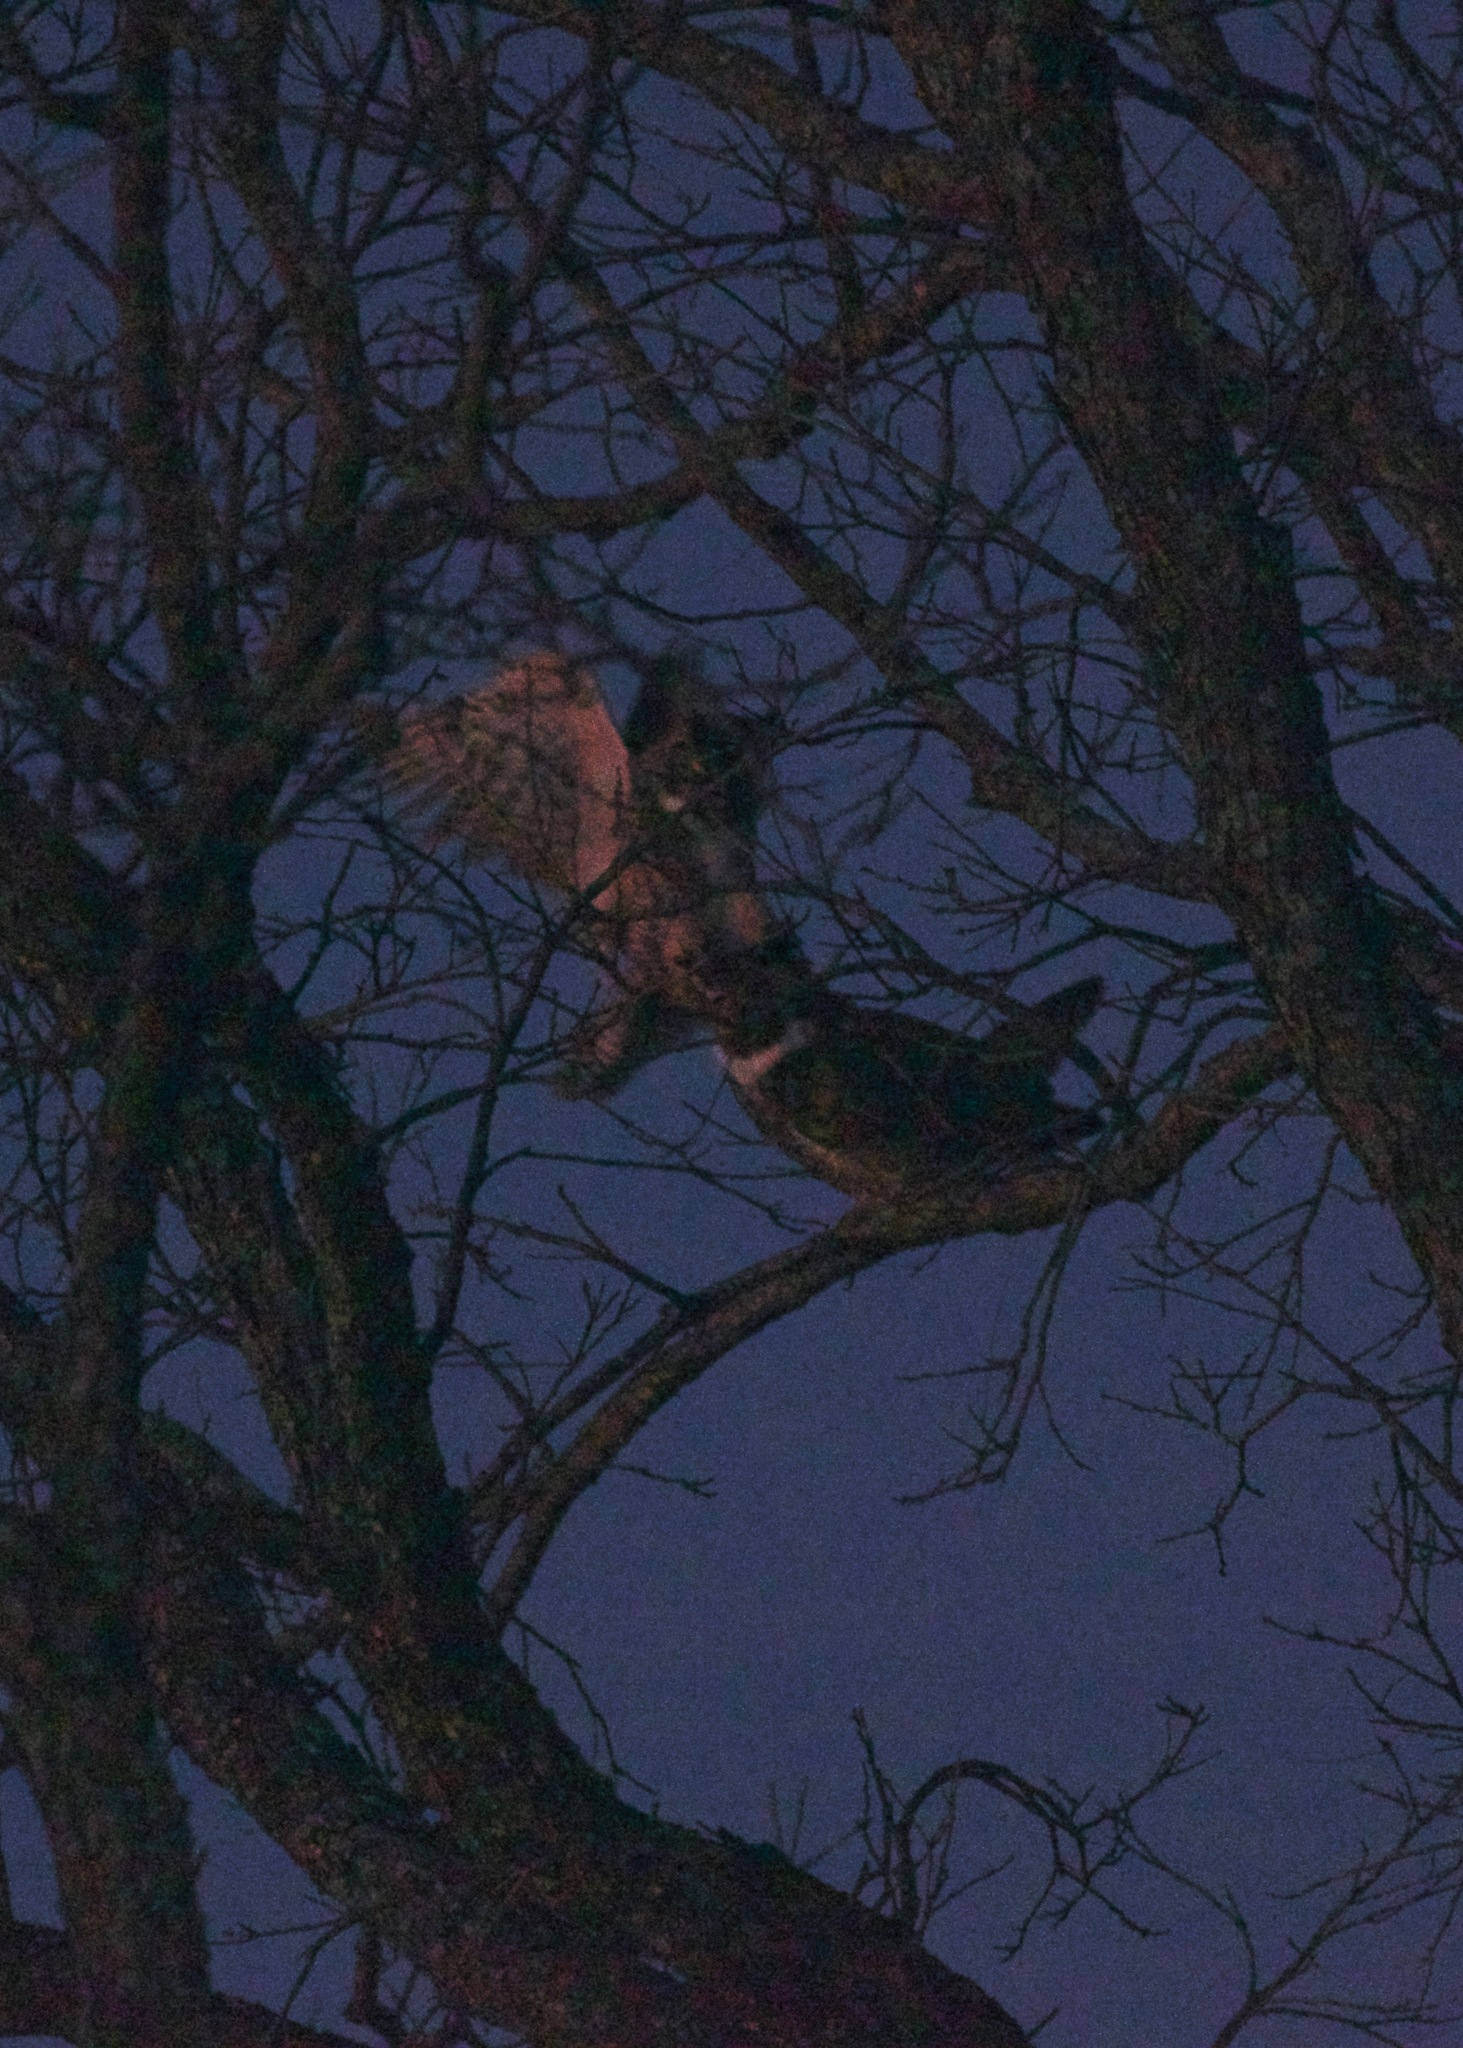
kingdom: Animalia
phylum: Chordata
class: Aves
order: Strigiformes
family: Strigidae
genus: Bubo
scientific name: Bubo virginianus
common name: Great horned owl
